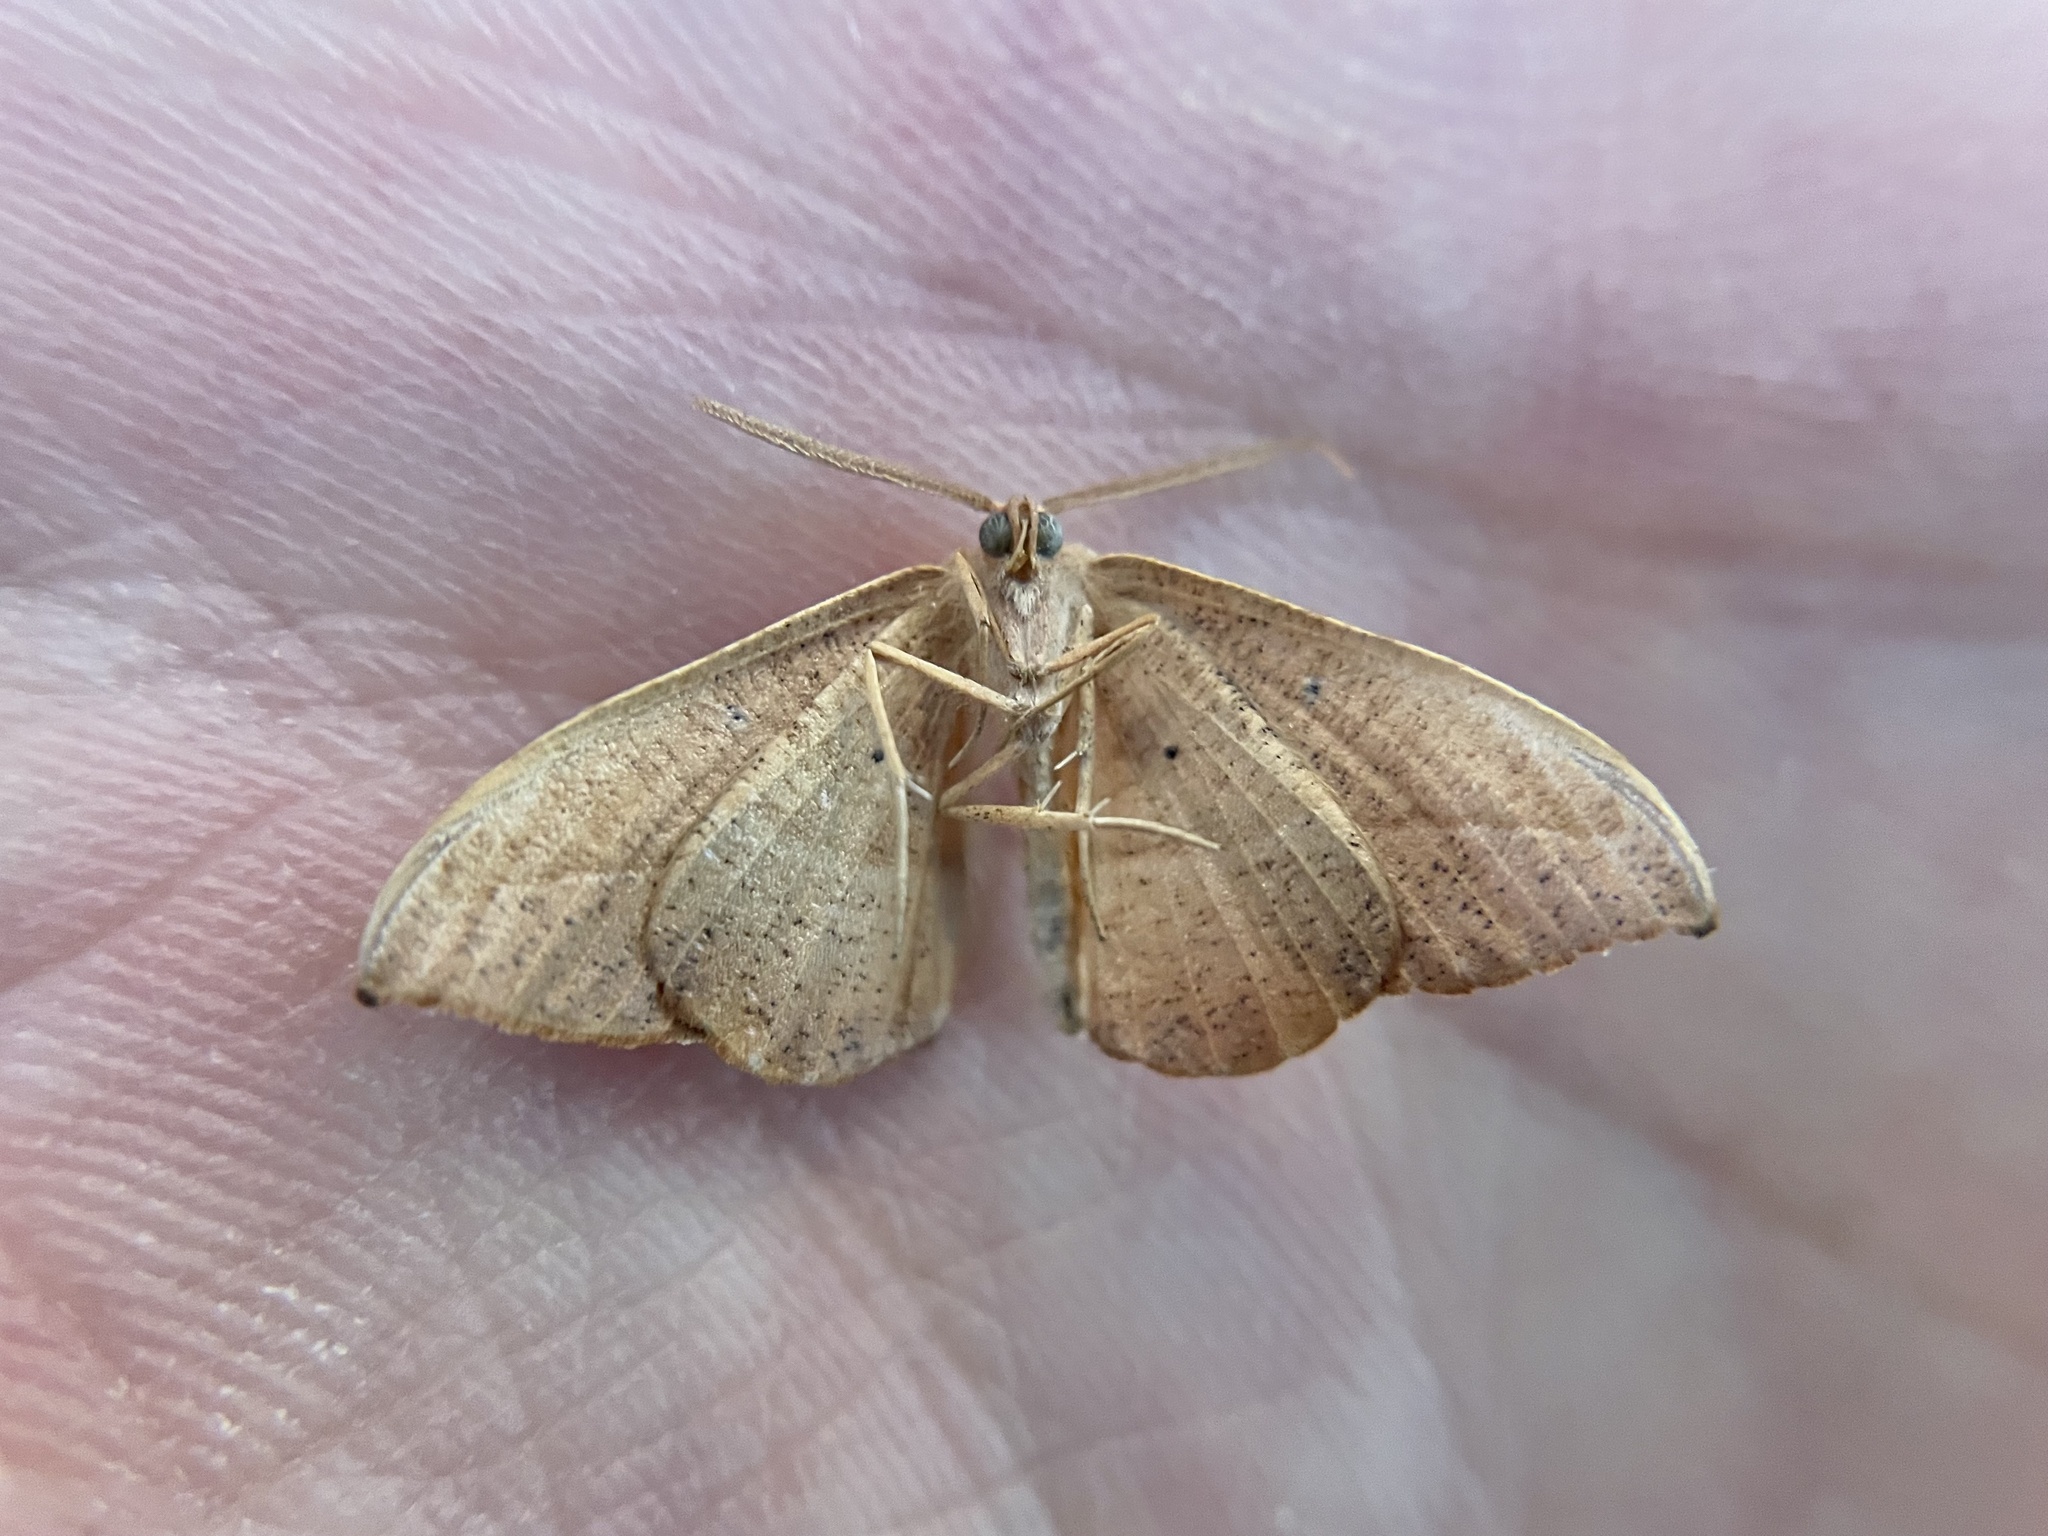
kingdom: Animalia
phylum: Arthropoda
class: Insecta
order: Lepidoptera
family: Geometridae
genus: Patalene
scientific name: Patalene olyzonaria
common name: Juniper geometer moth
